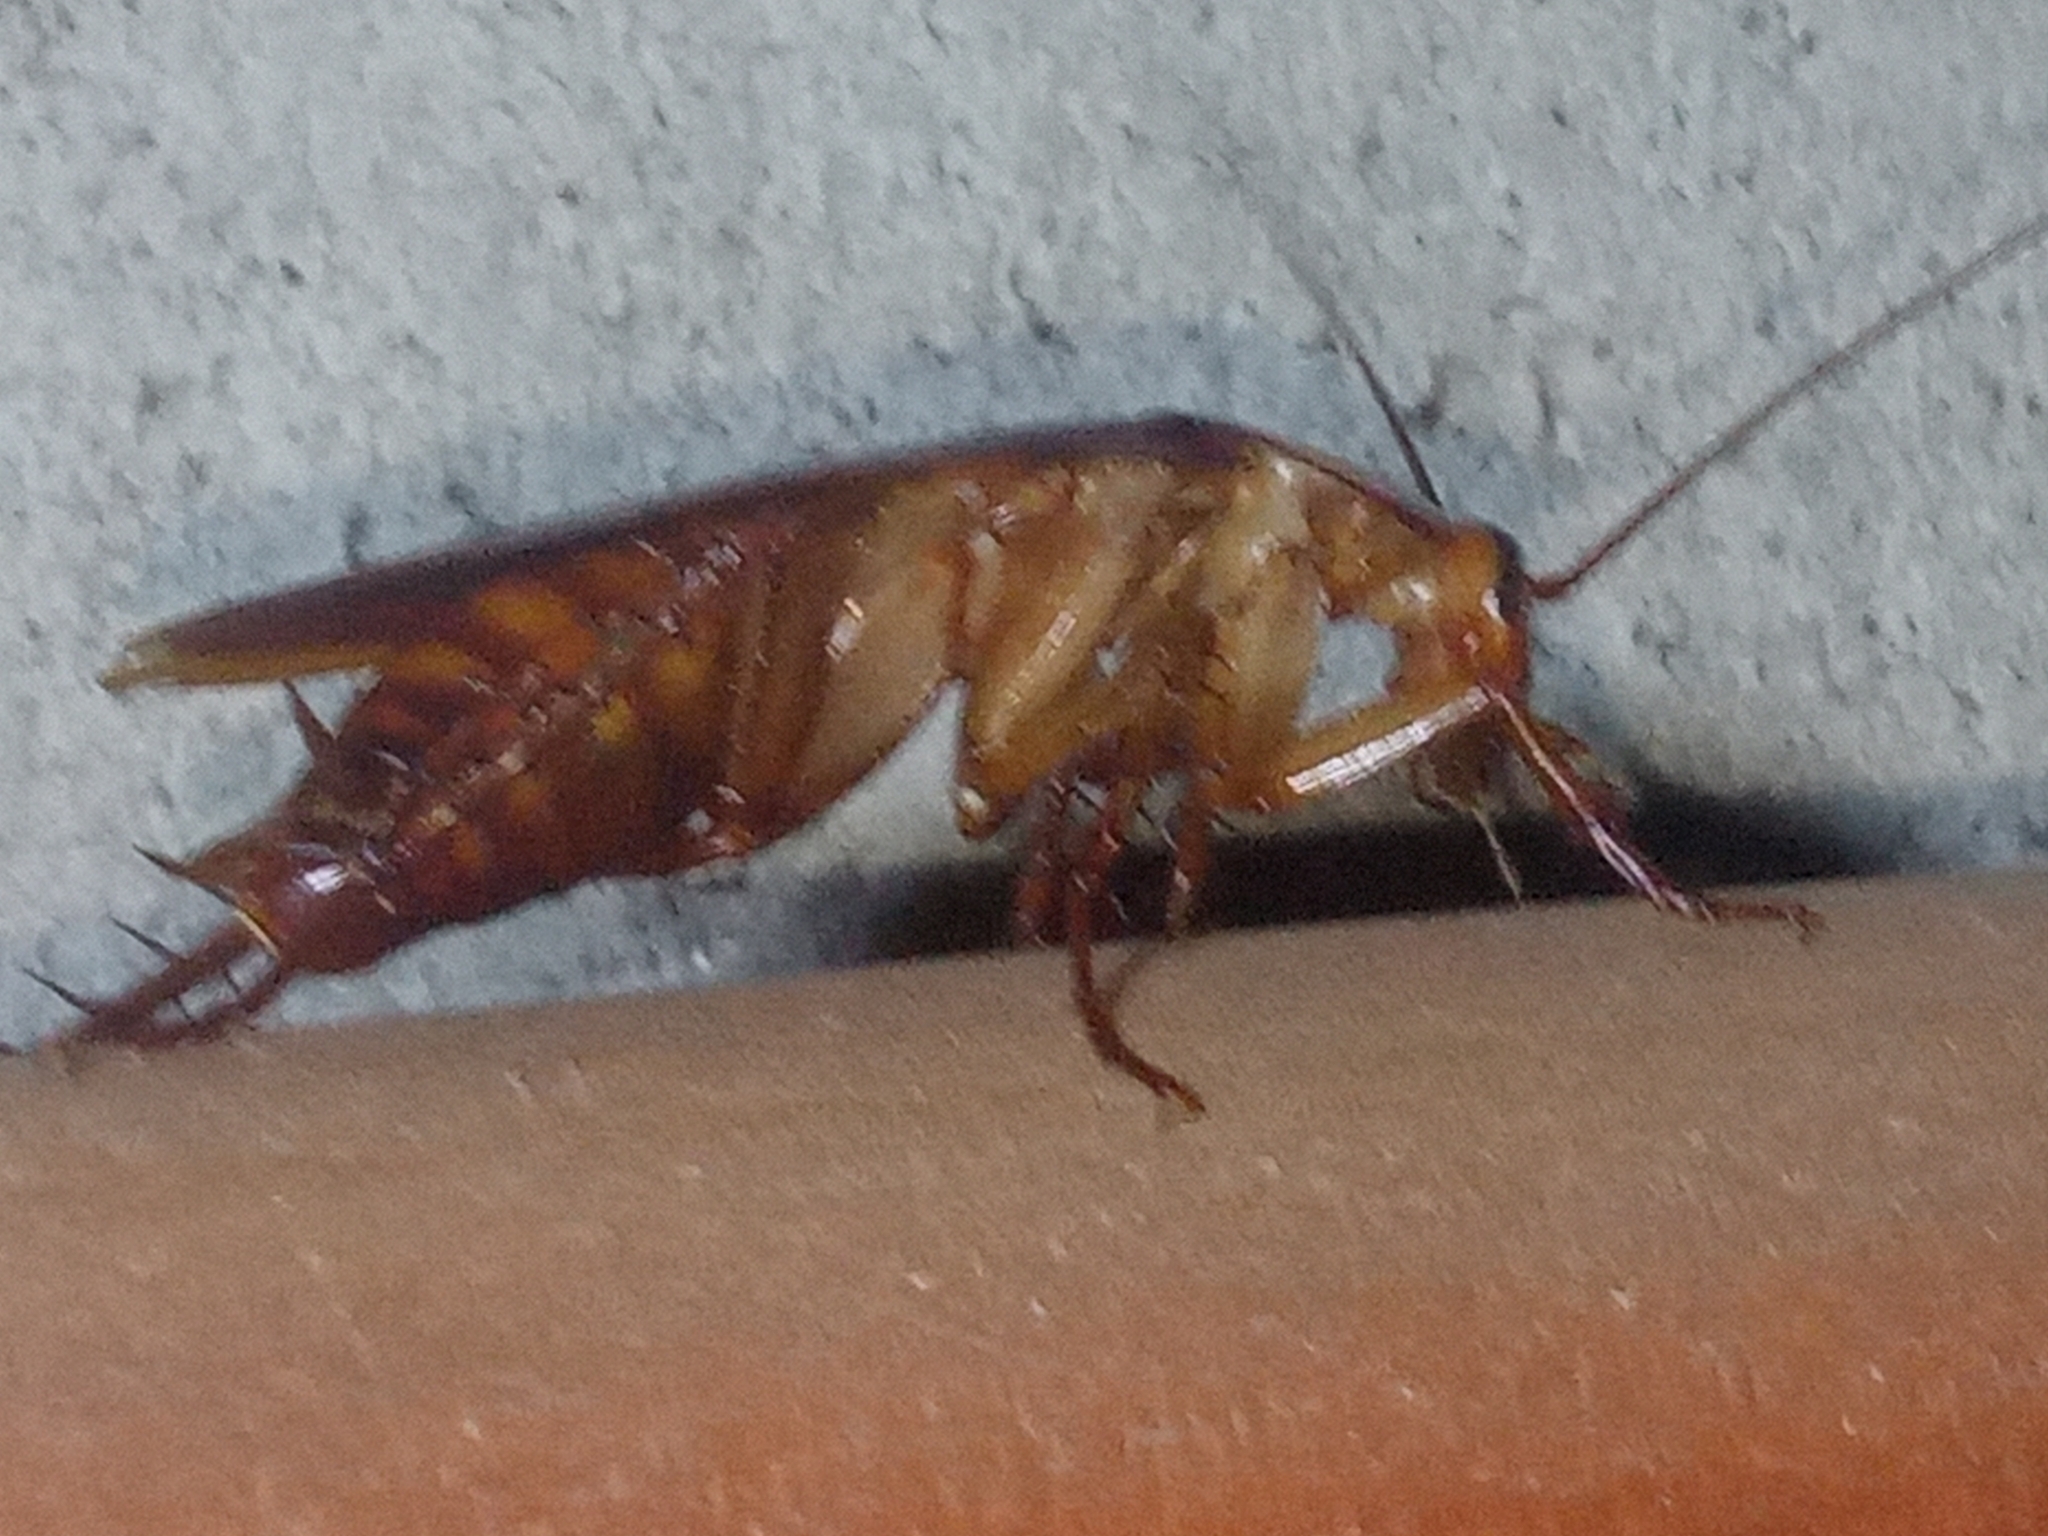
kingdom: Animalia
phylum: Arthropoda
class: Insecta
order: Blattodea
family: Blattidae
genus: Periplaneta
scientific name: Periplaneta americana
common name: American cockroach
